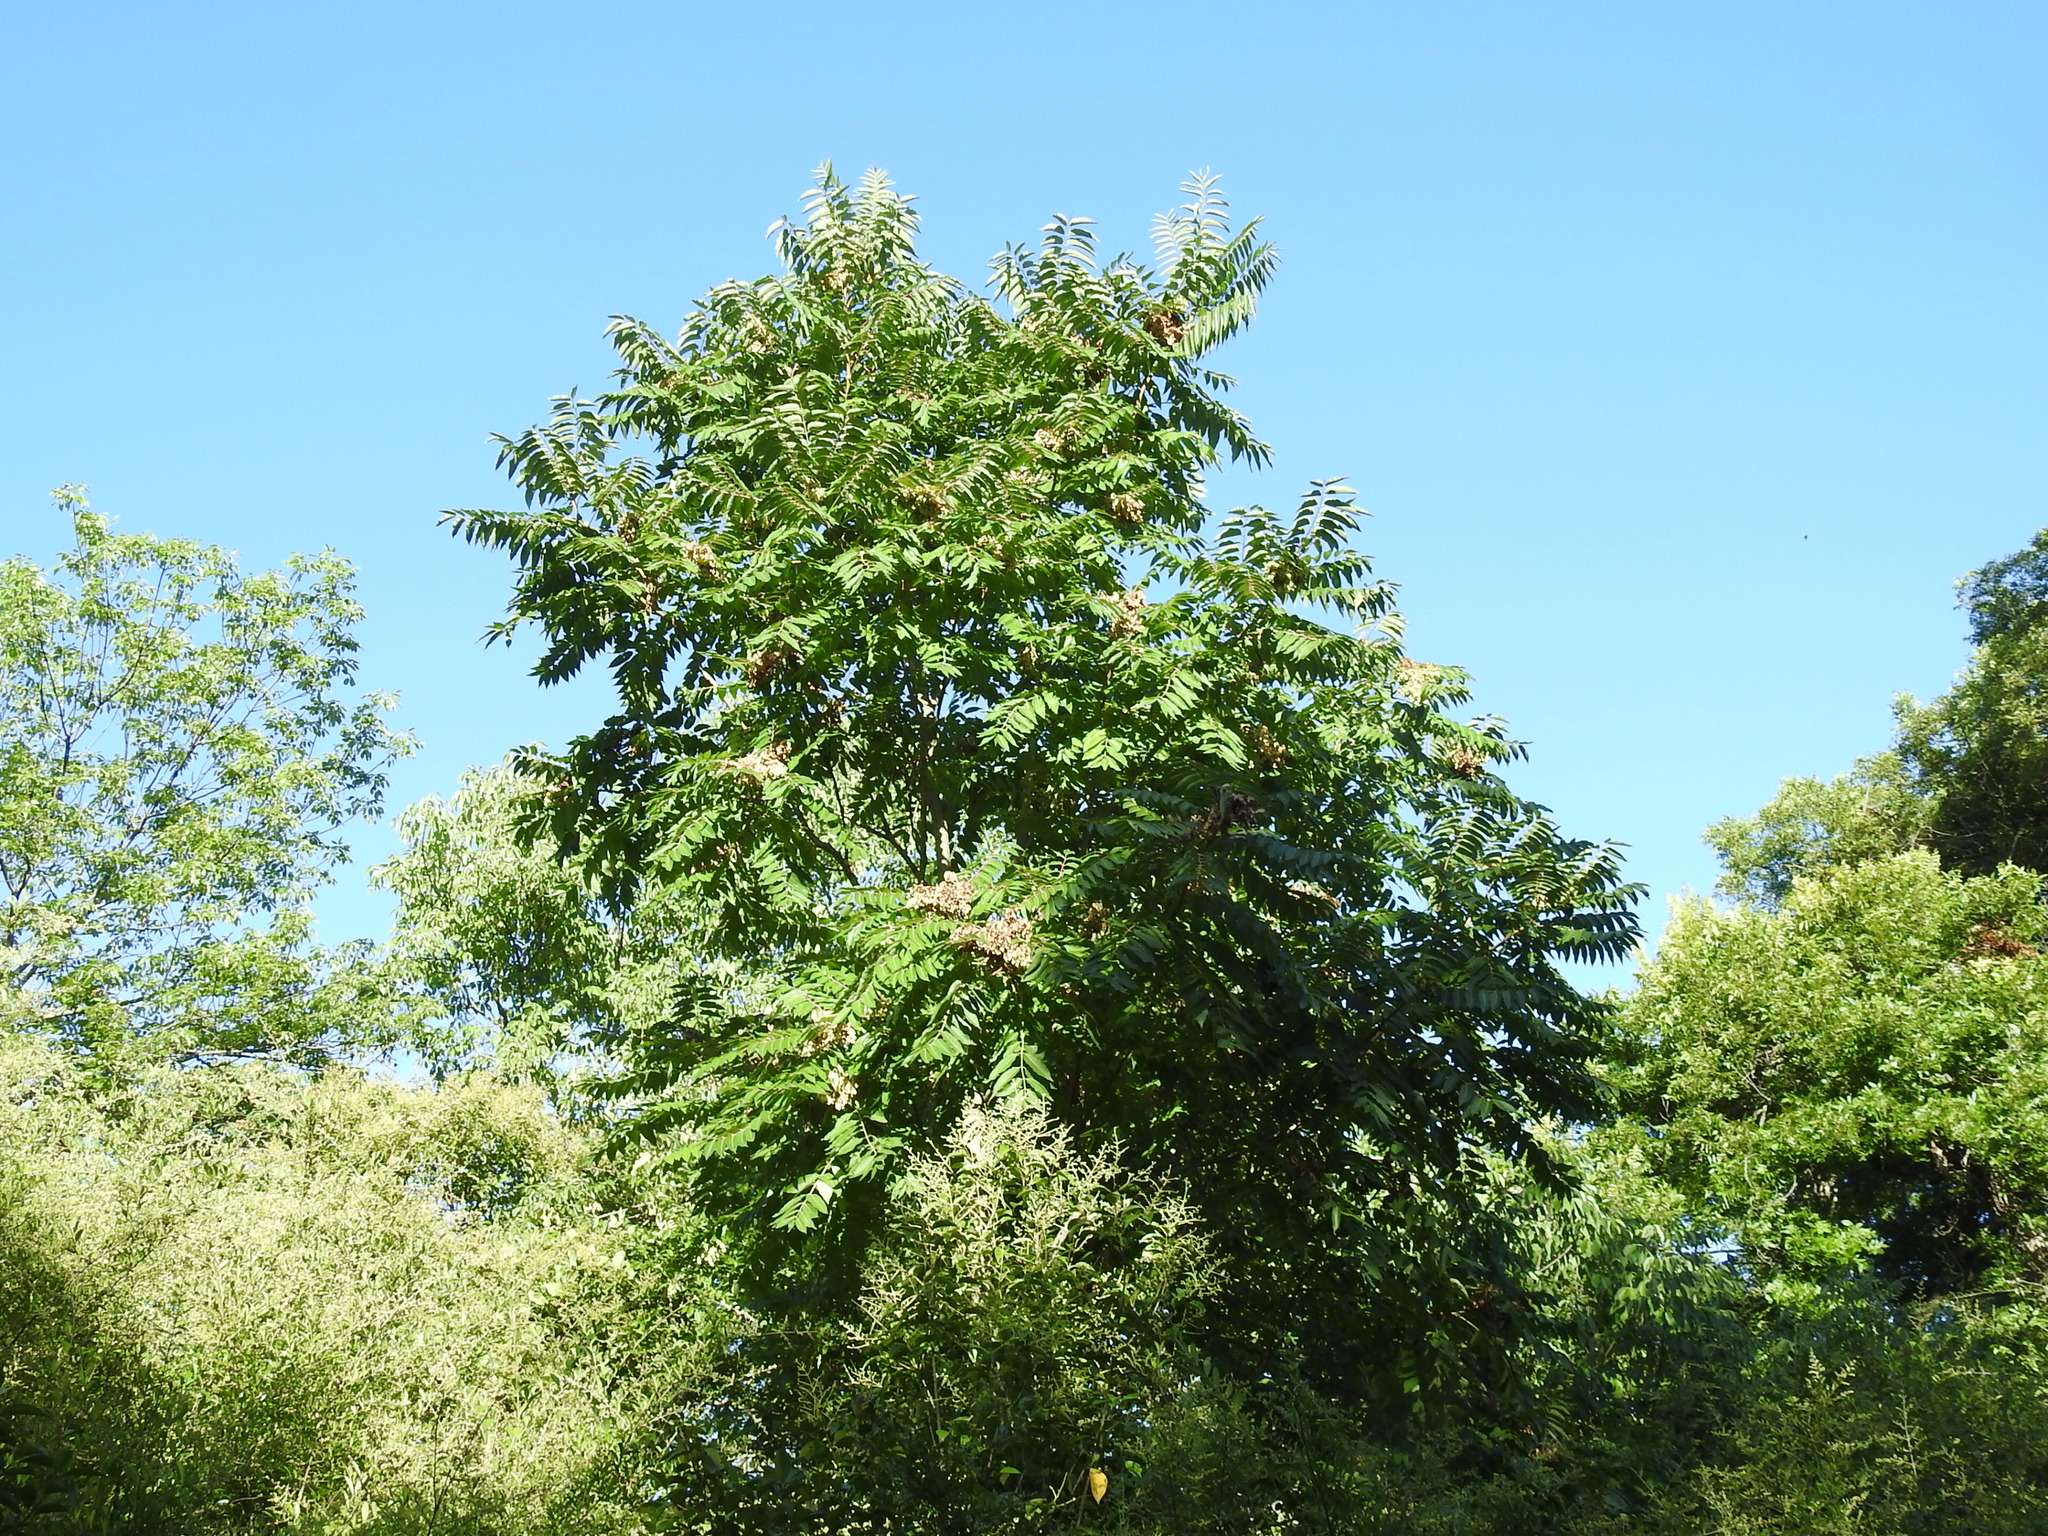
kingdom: Plantae
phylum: Tracheophyta
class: Magnoliopsida
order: Sapindales
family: Simaroubaceae
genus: Ailanthus
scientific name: Ailanthus altissima
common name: Tree-of-heaven
